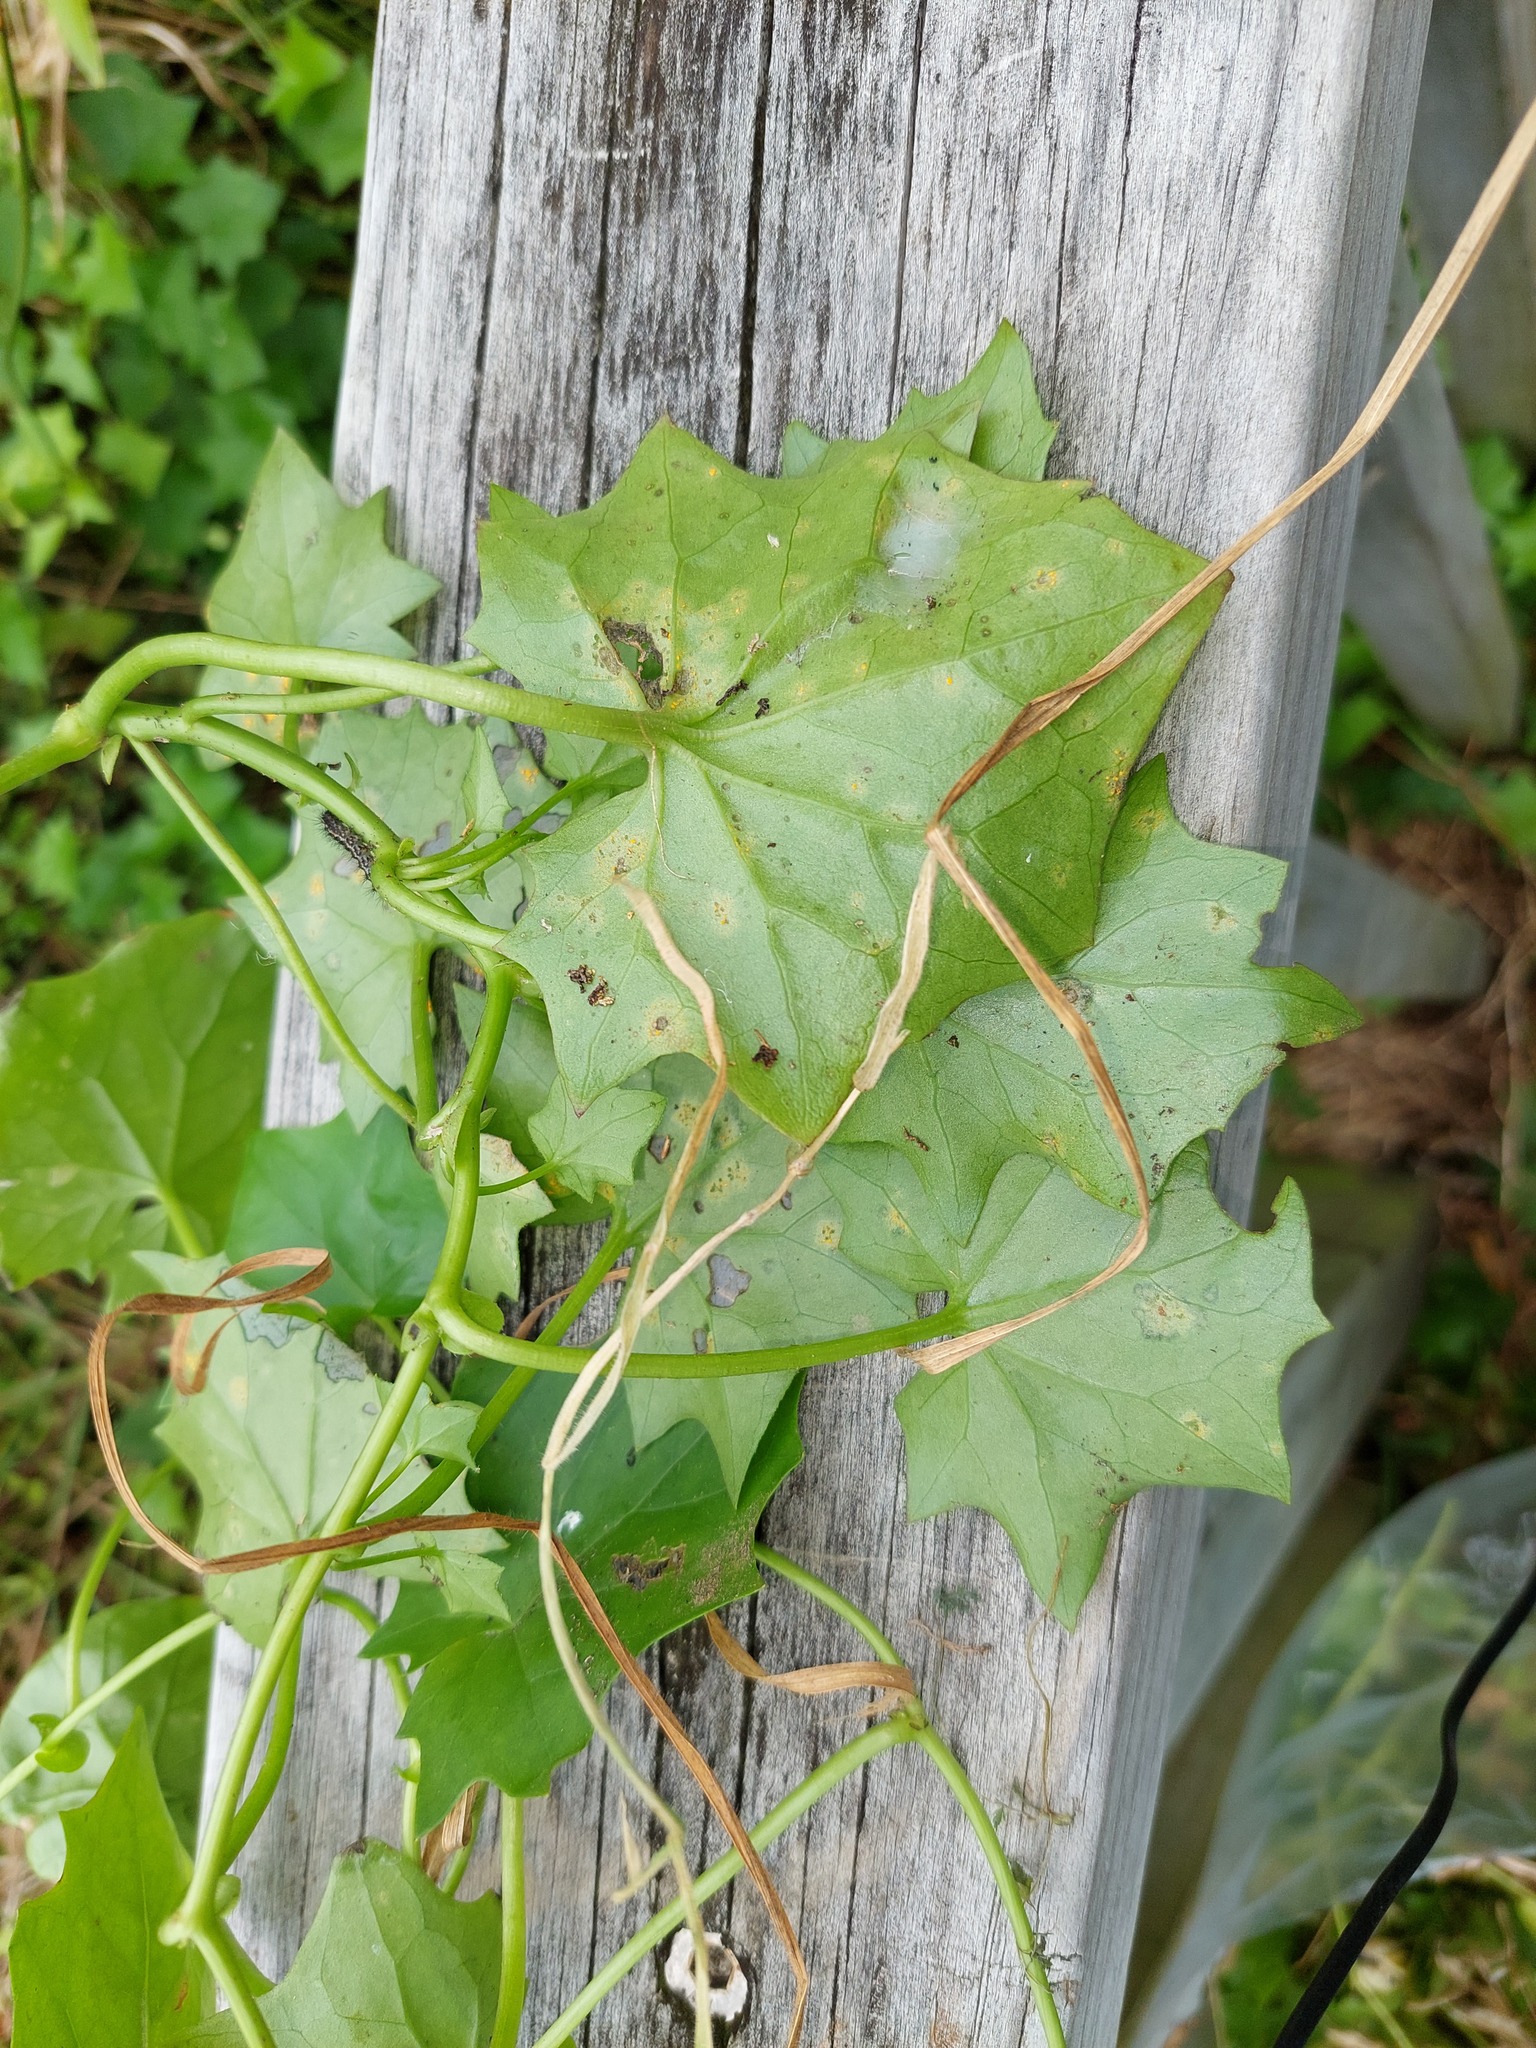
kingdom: Plantae
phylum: Tracheophyta
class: Magnoliopsida
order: Caryophyllales
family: Polygonaceae
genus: Rumex
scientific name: Rumex sagittatus
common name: Climbing dock
